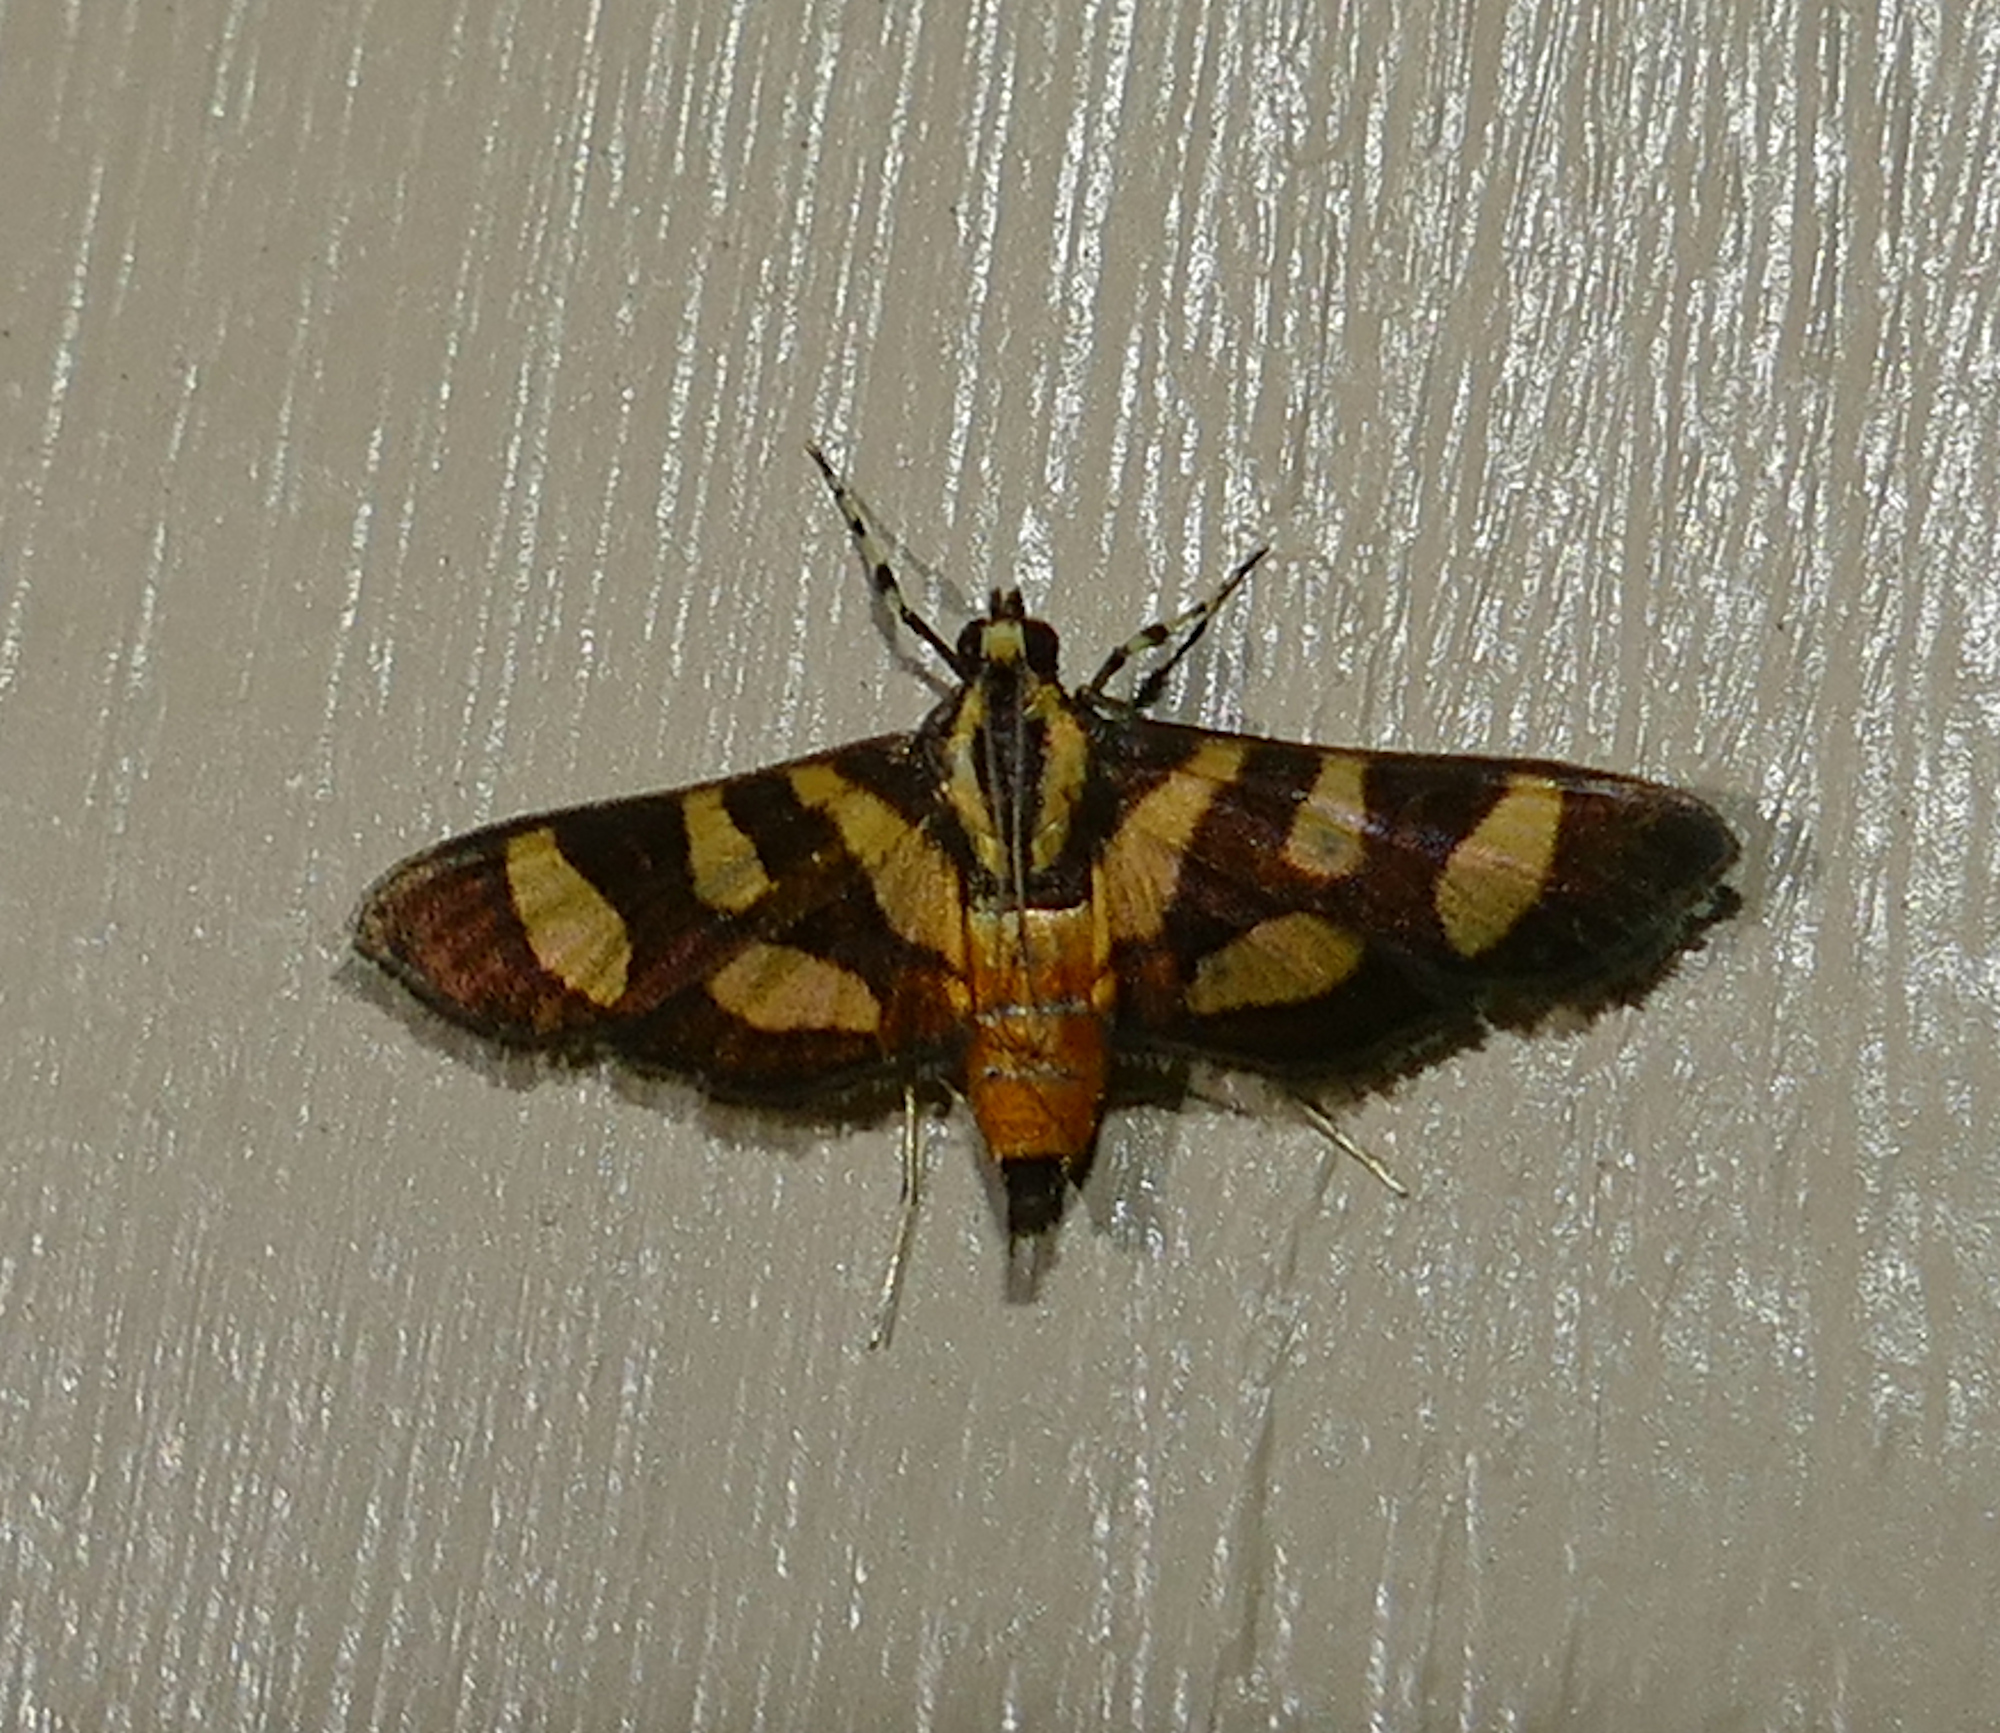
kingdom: Animalia
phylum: Arthropoda
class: Insecta
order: Lepidoptera
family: Crambidae
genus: Syngamia
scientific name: Syngamia florella
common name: Orange-spotted flower moth
